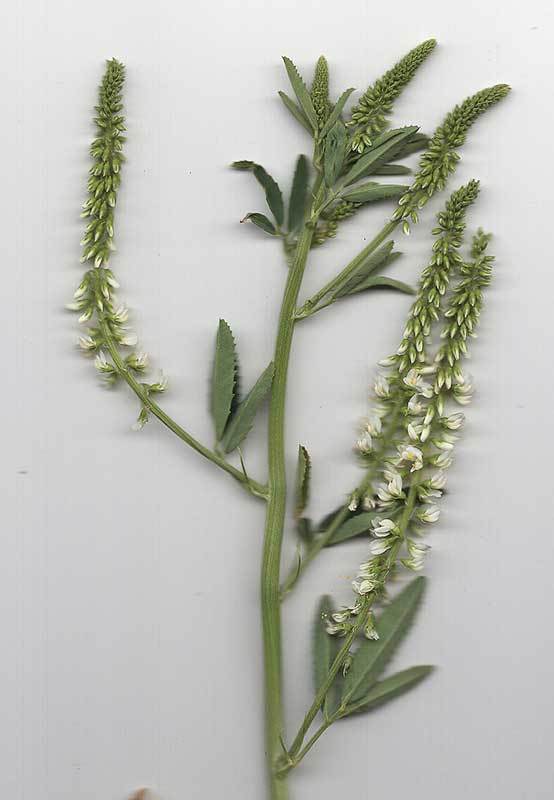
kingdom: Plantae
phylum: Tracheophyta
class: Magnoliopsida
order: Fabales
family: Fabaceae
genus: Melilotus
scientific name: Melilotus albus
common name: White melilot
